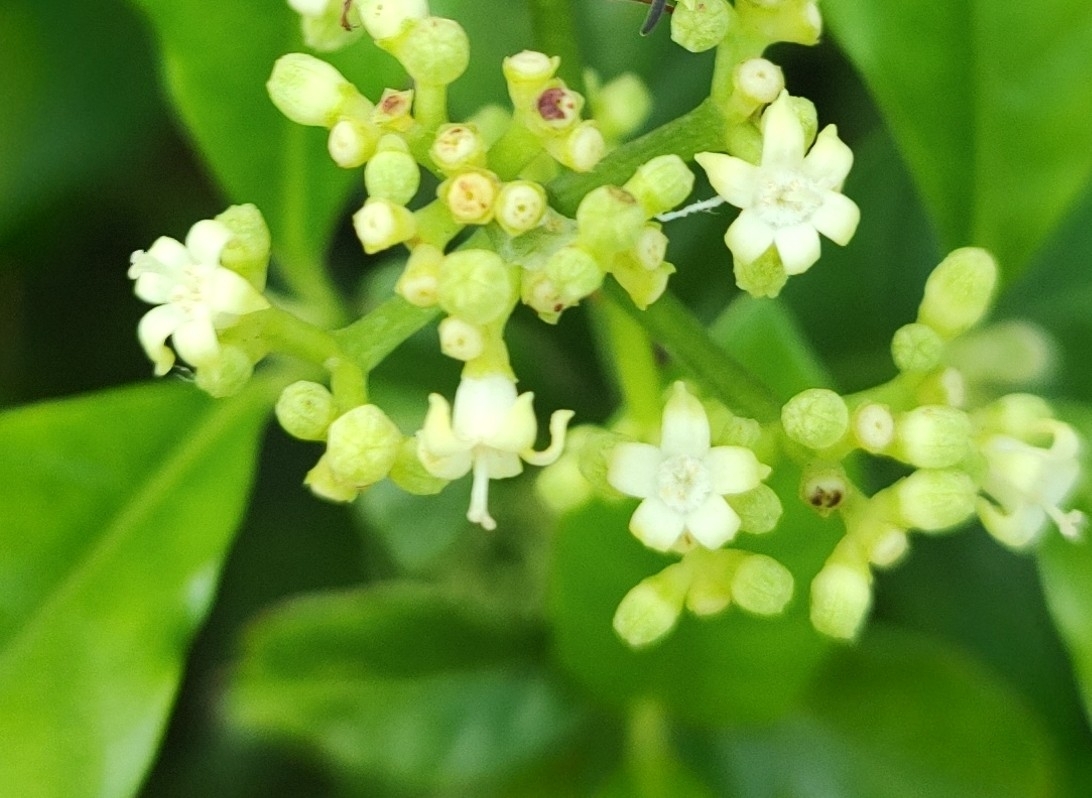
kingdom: Plantae
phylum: Tracheophyta
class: Magnoliopsida
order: Gentianales
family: Rubiaceae
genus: Psychotria
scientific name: Psychotria carthagenensis
